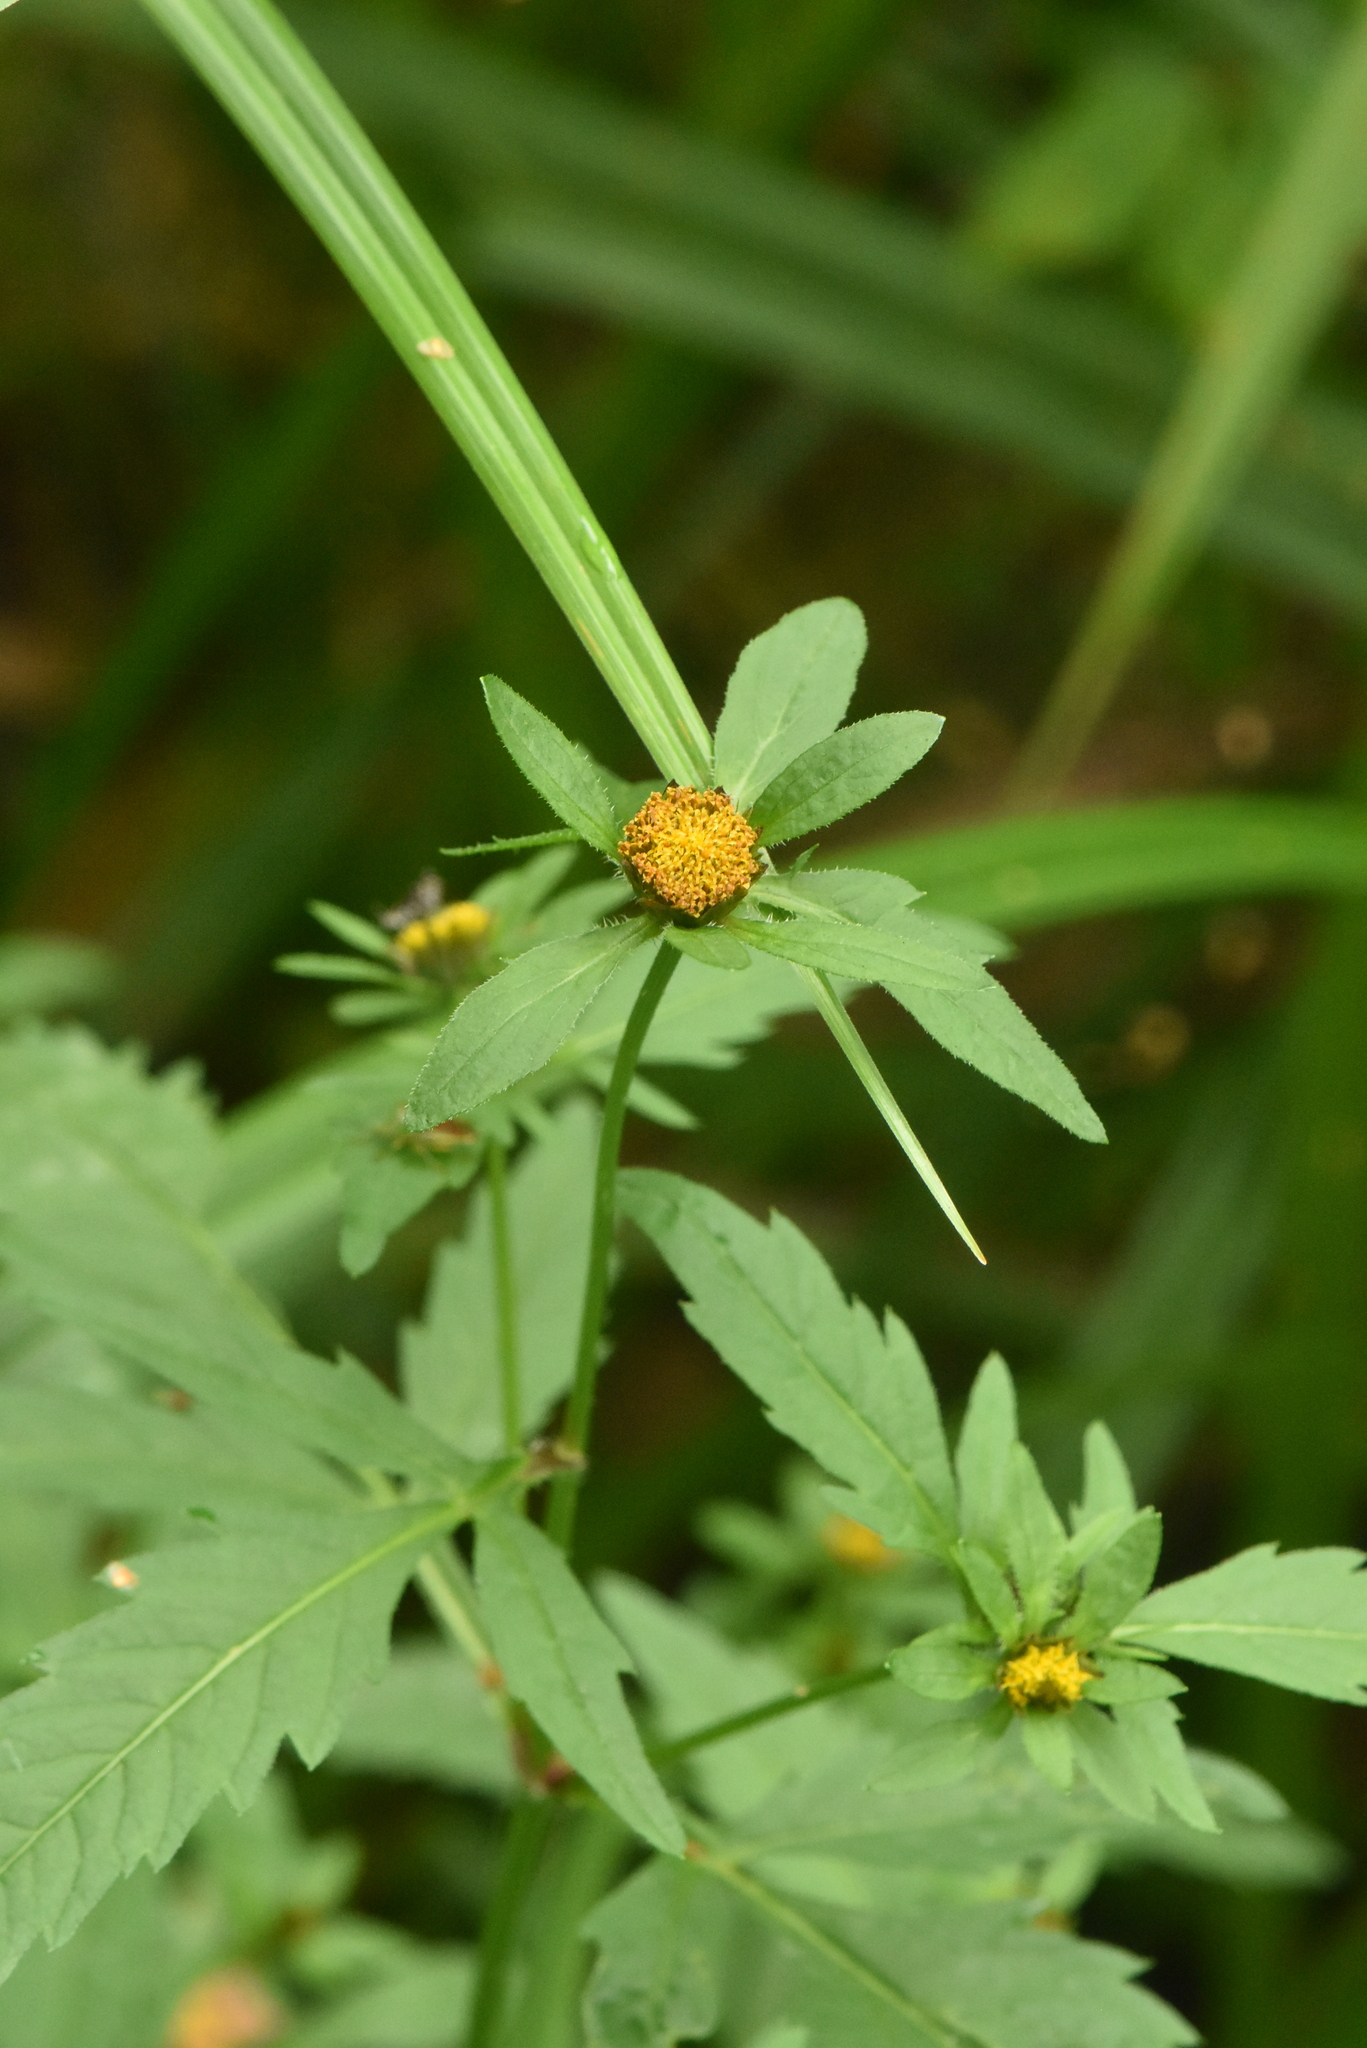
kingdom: Plantae
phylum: Tracheophyta
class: Magnoliopsida
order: Asterales
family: Asteraceae
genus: Bidens
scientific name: Bidens tripartita
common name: Trifid bur-marigold
